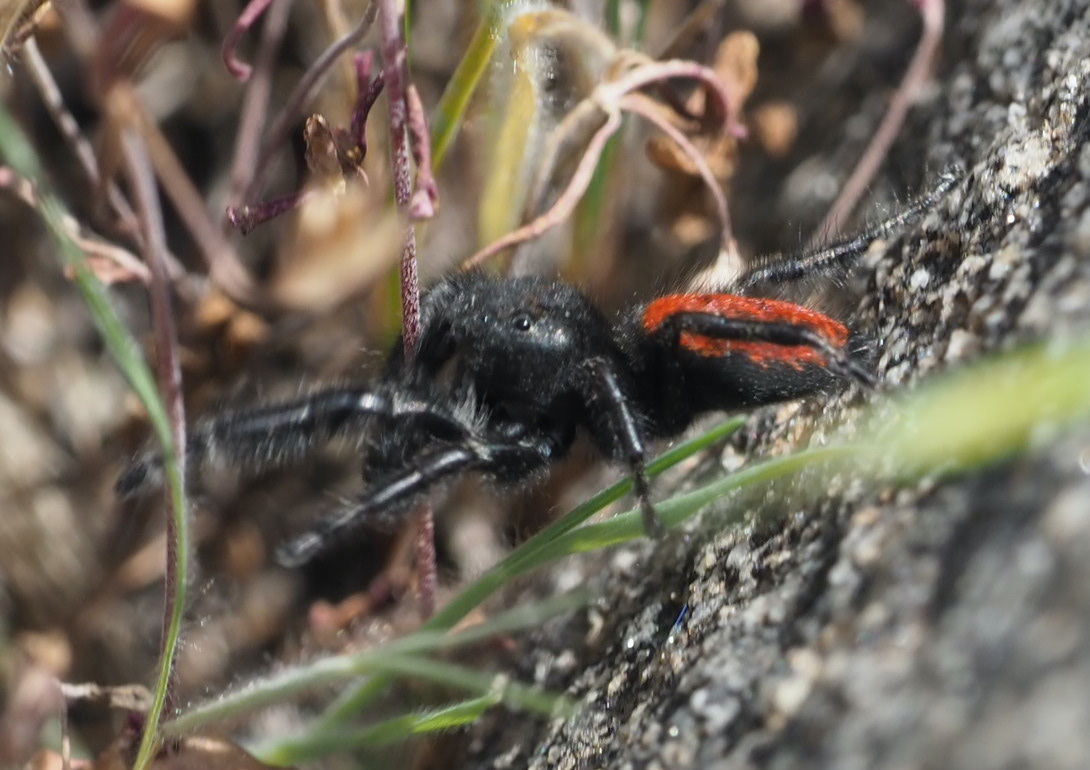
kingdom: Animalia
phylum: Arthropoda
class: Arachnida
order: Araneae
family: Salticidae
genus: Phidippus
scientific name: Phidippus johnsoni
